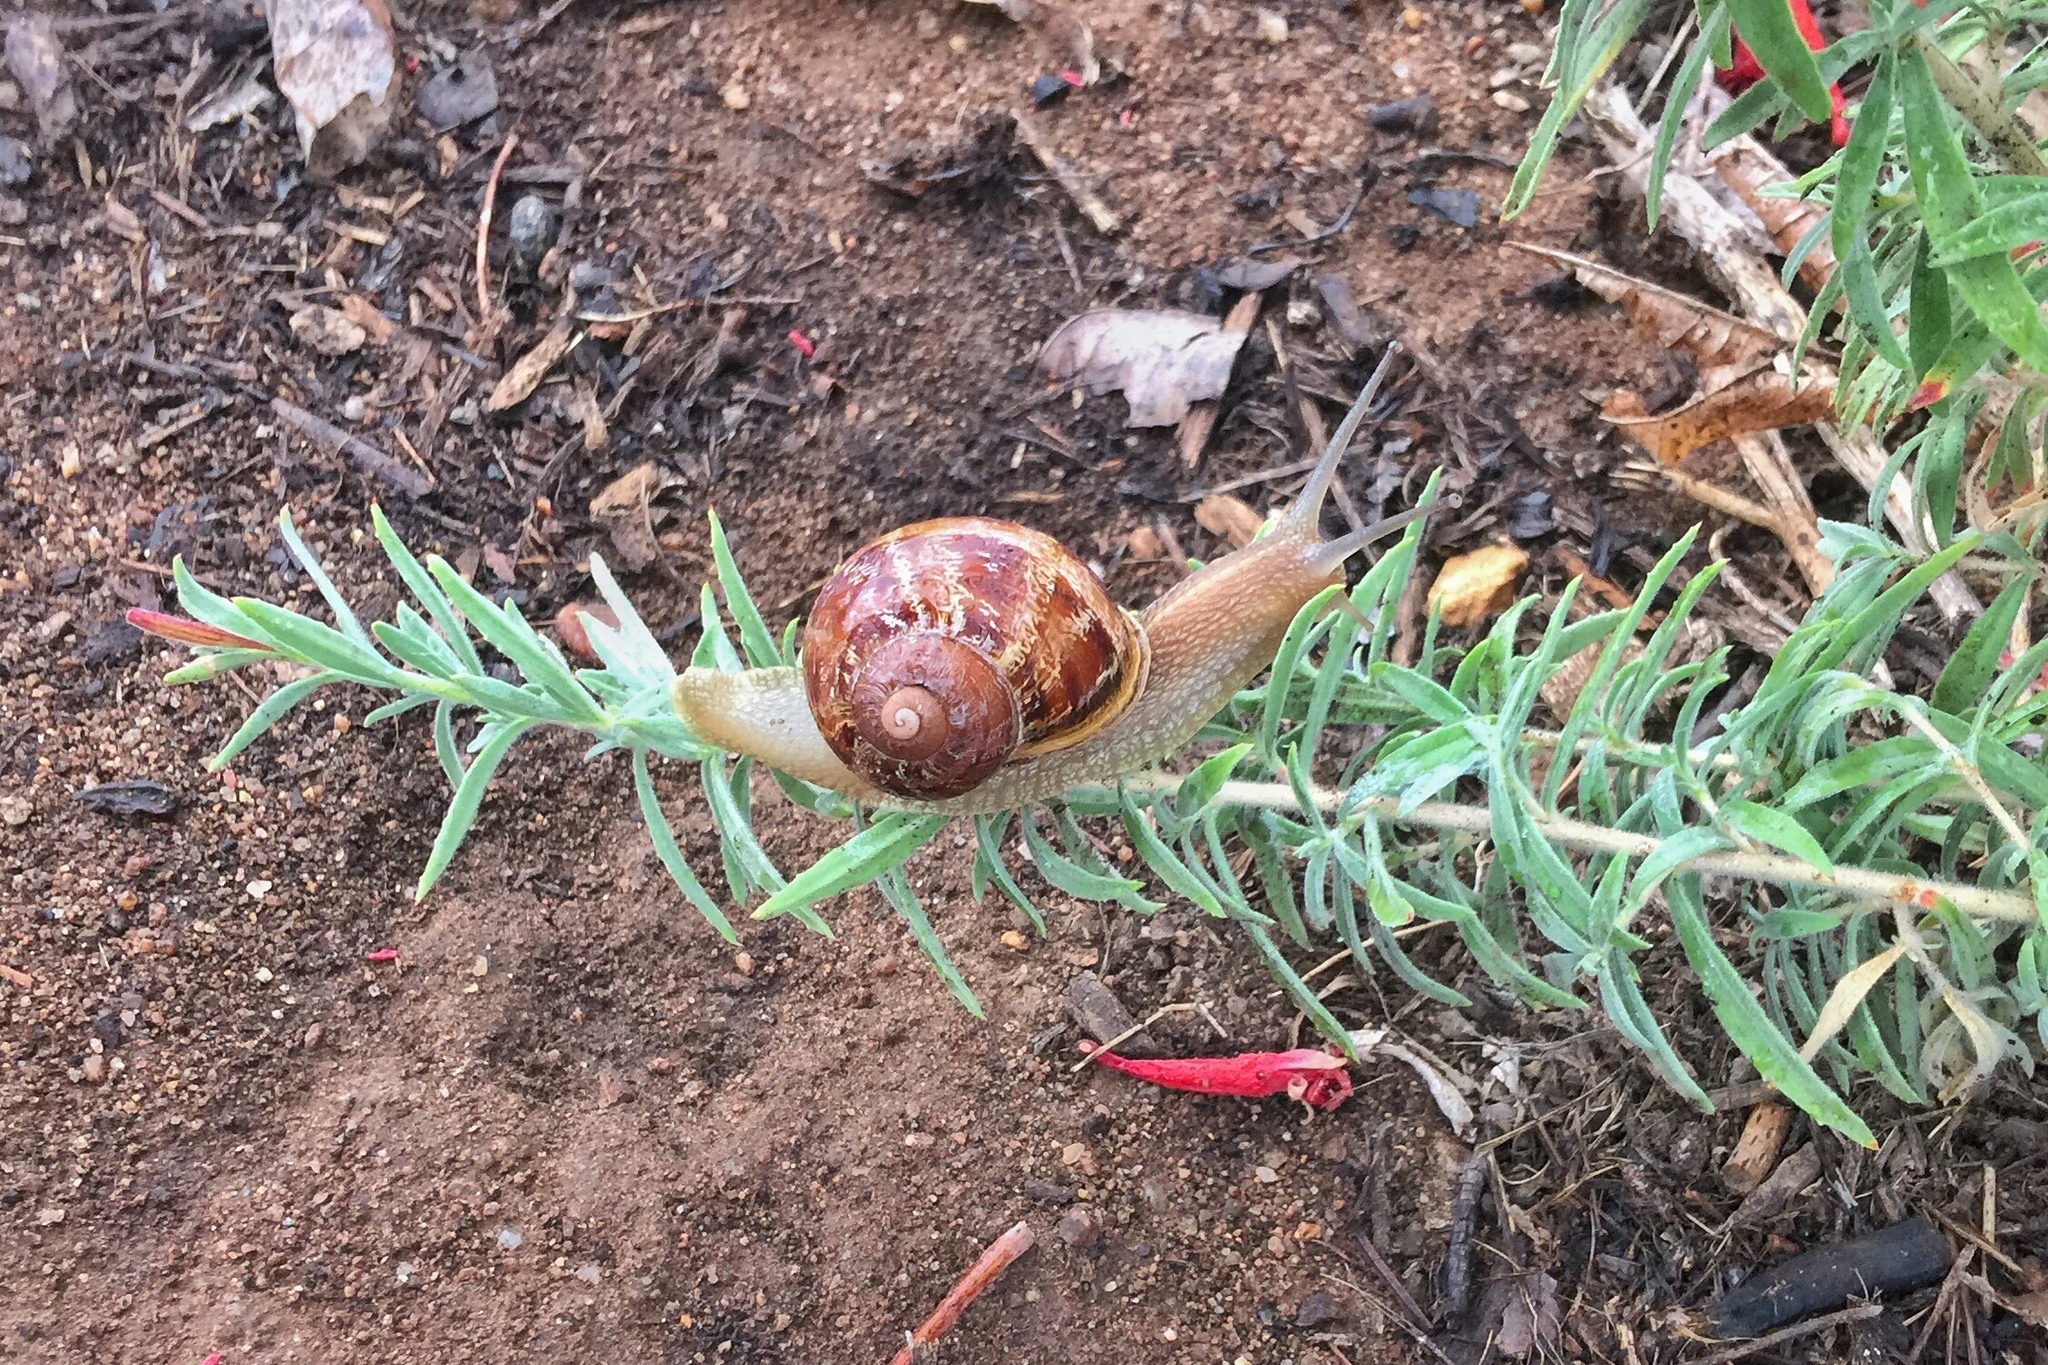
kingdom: Animalia
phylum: Mollusca
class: Gastropoda
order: Stylommatophora
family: Helicidae
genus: Cornu
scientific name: Cornu aspersum
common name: Brown garden snail
